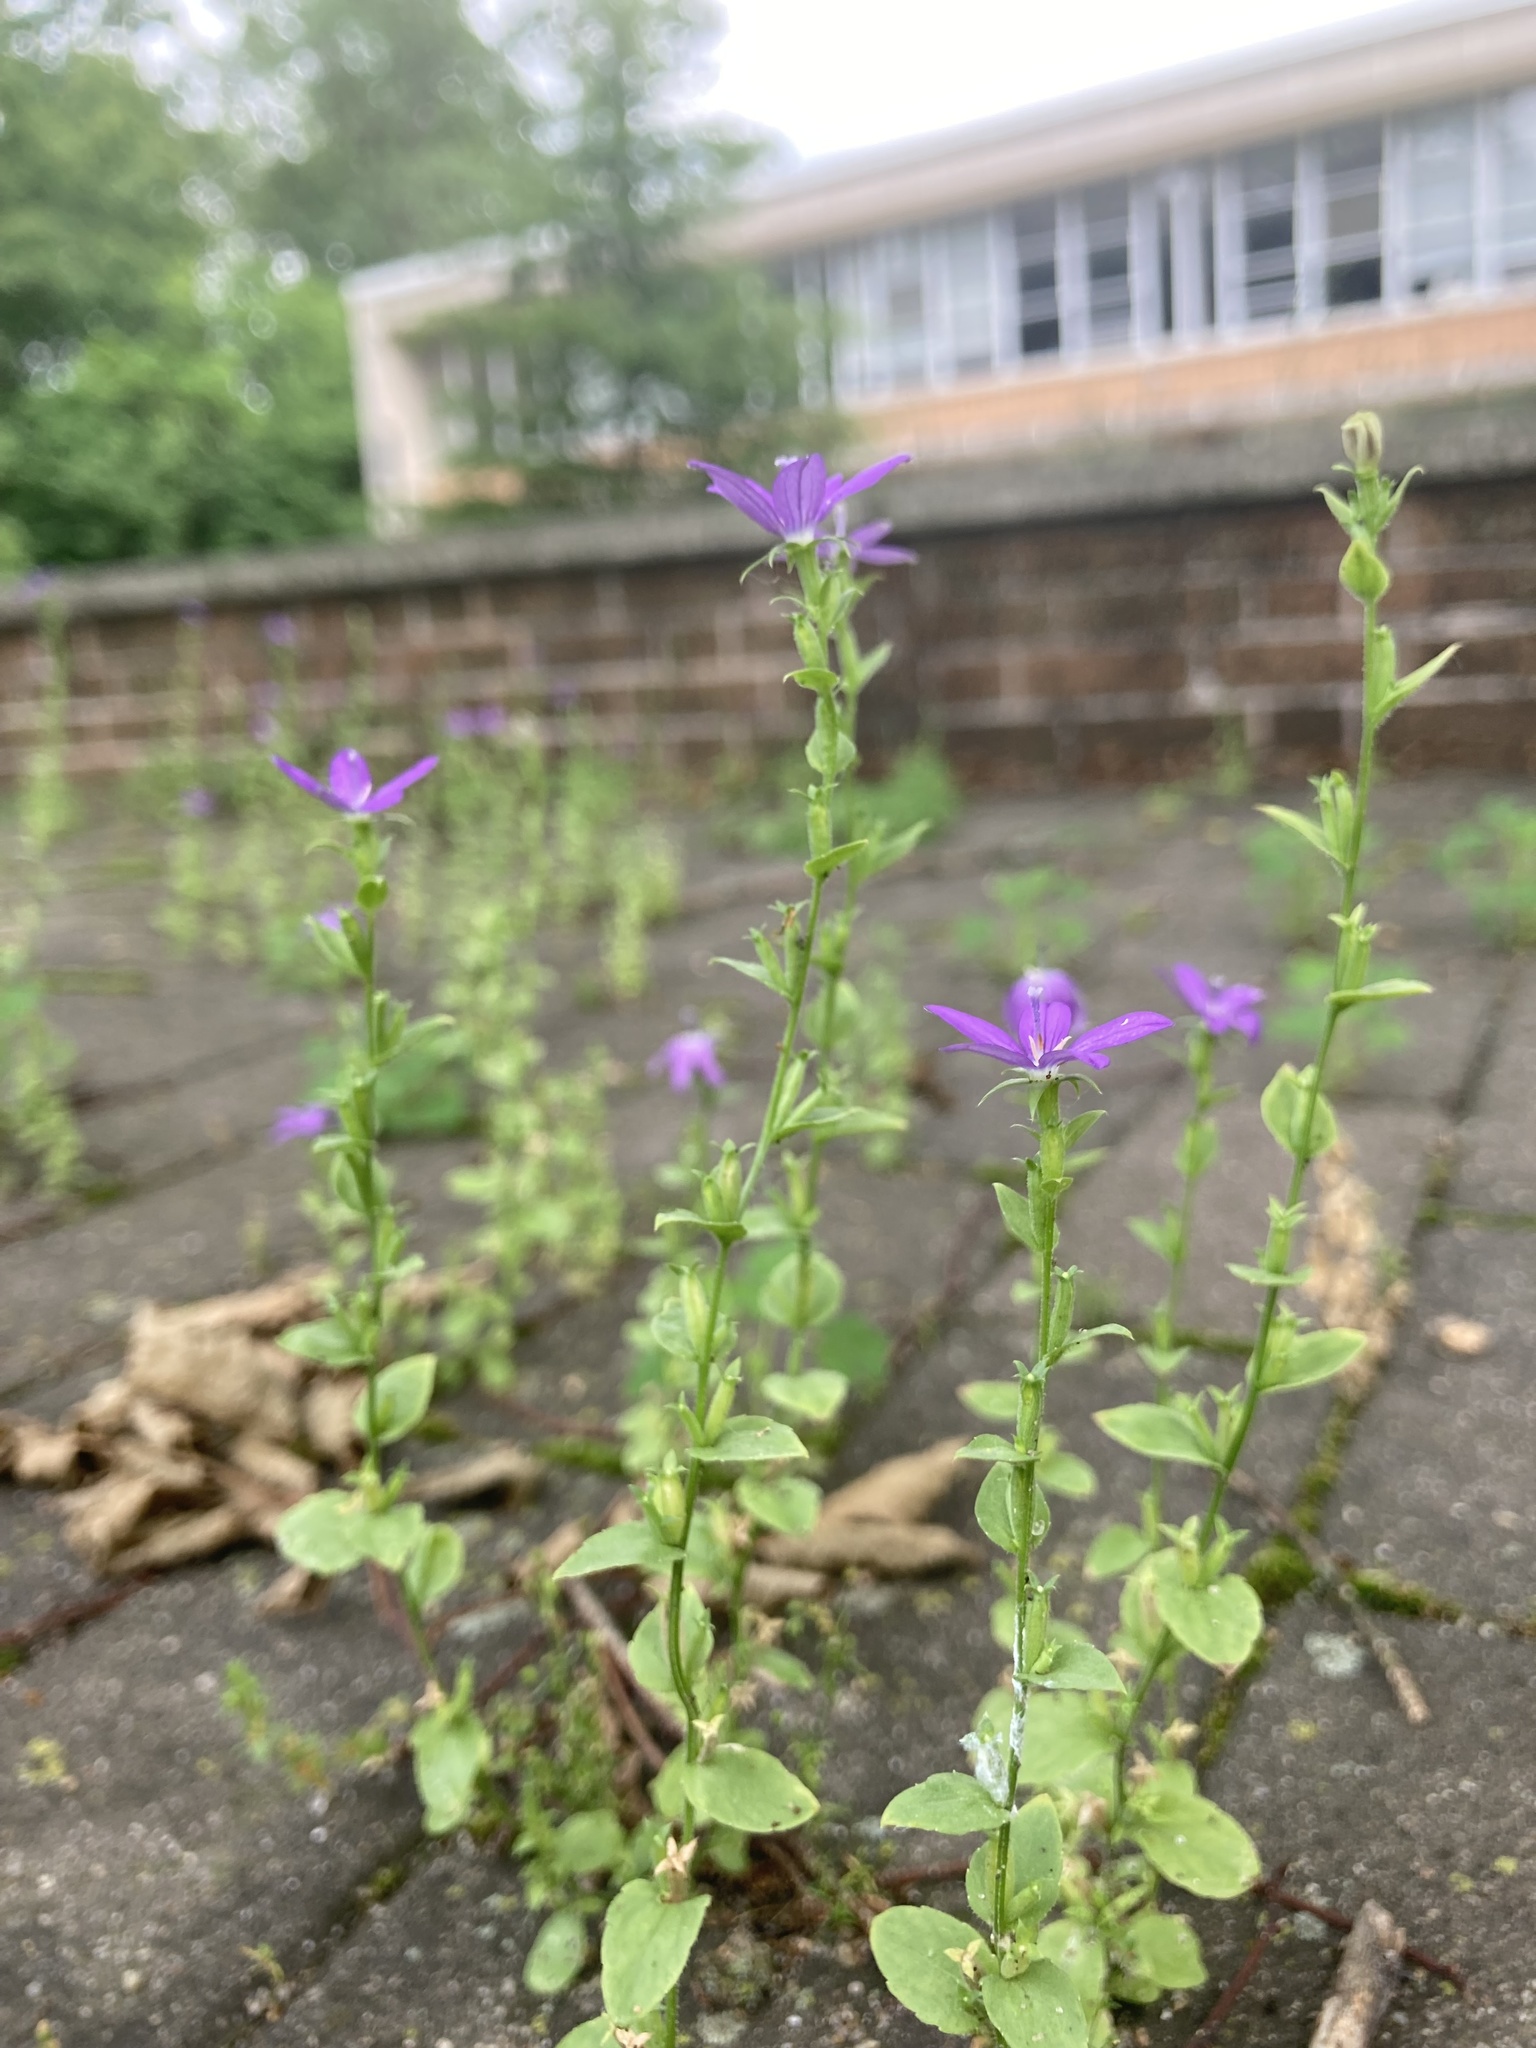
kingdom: Plantae
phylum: Tracheophyta
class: Magnoliopsida
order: Asterales
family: Campanulaceae
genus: Triodanis
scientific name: Triodanis biflora
